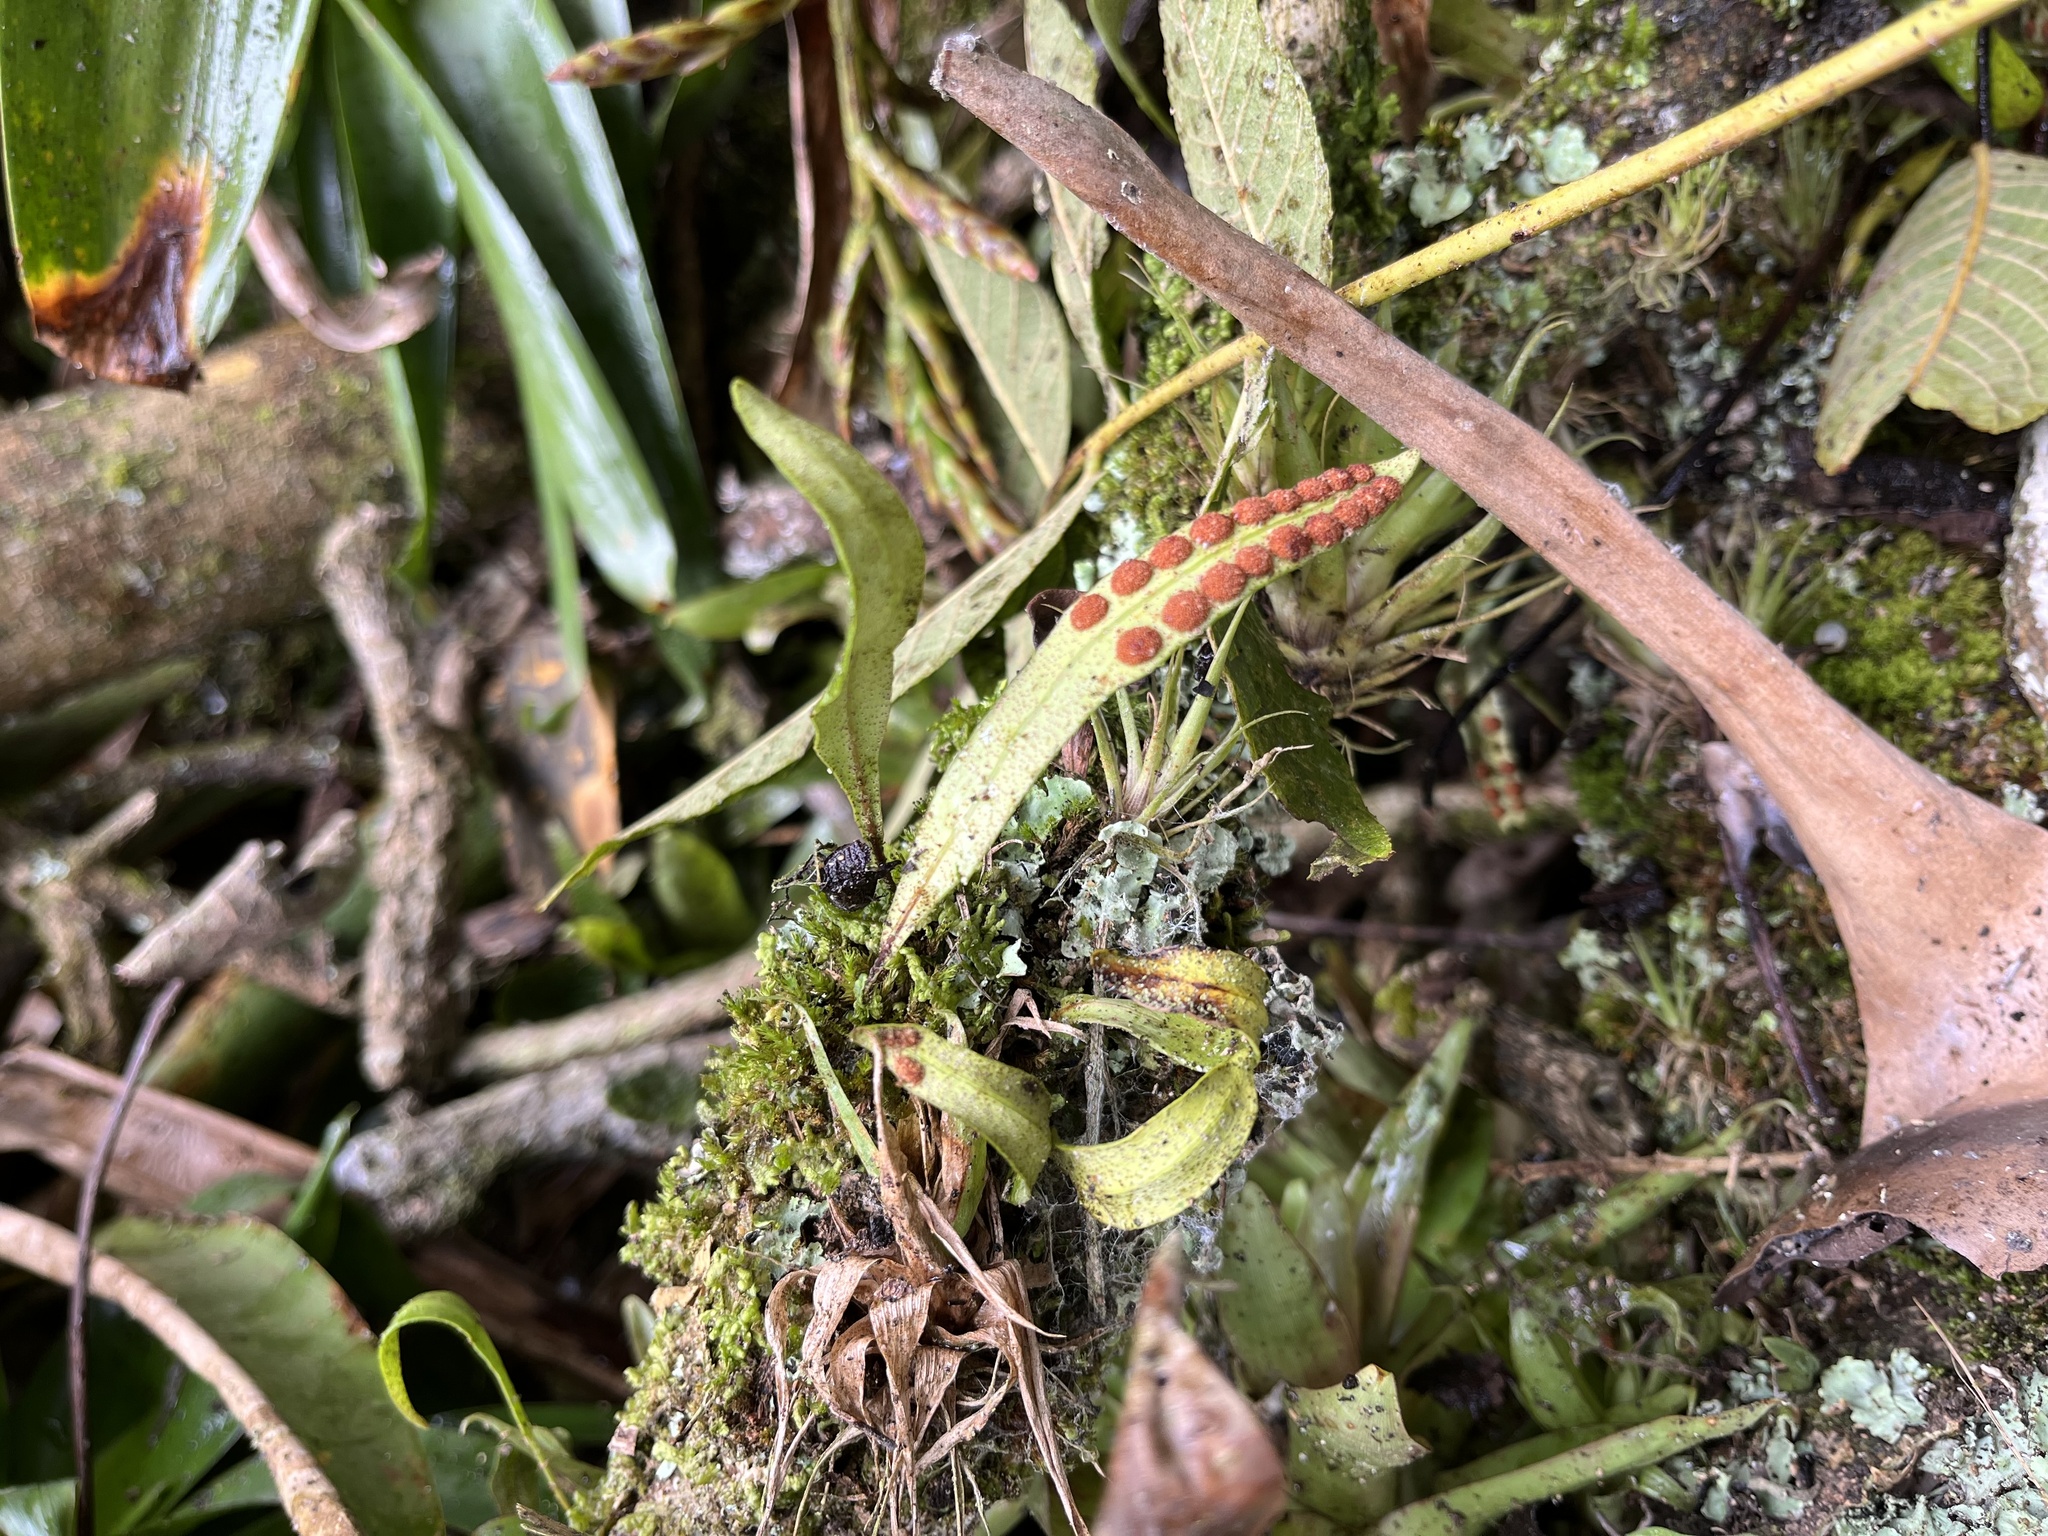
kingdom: Plantae
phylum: Tracheophyta
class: Polypodiopsida
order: Polypodiales
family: Polypodiaceae
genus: Pleopeltis
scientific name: Pleopeltis macrocarpa
